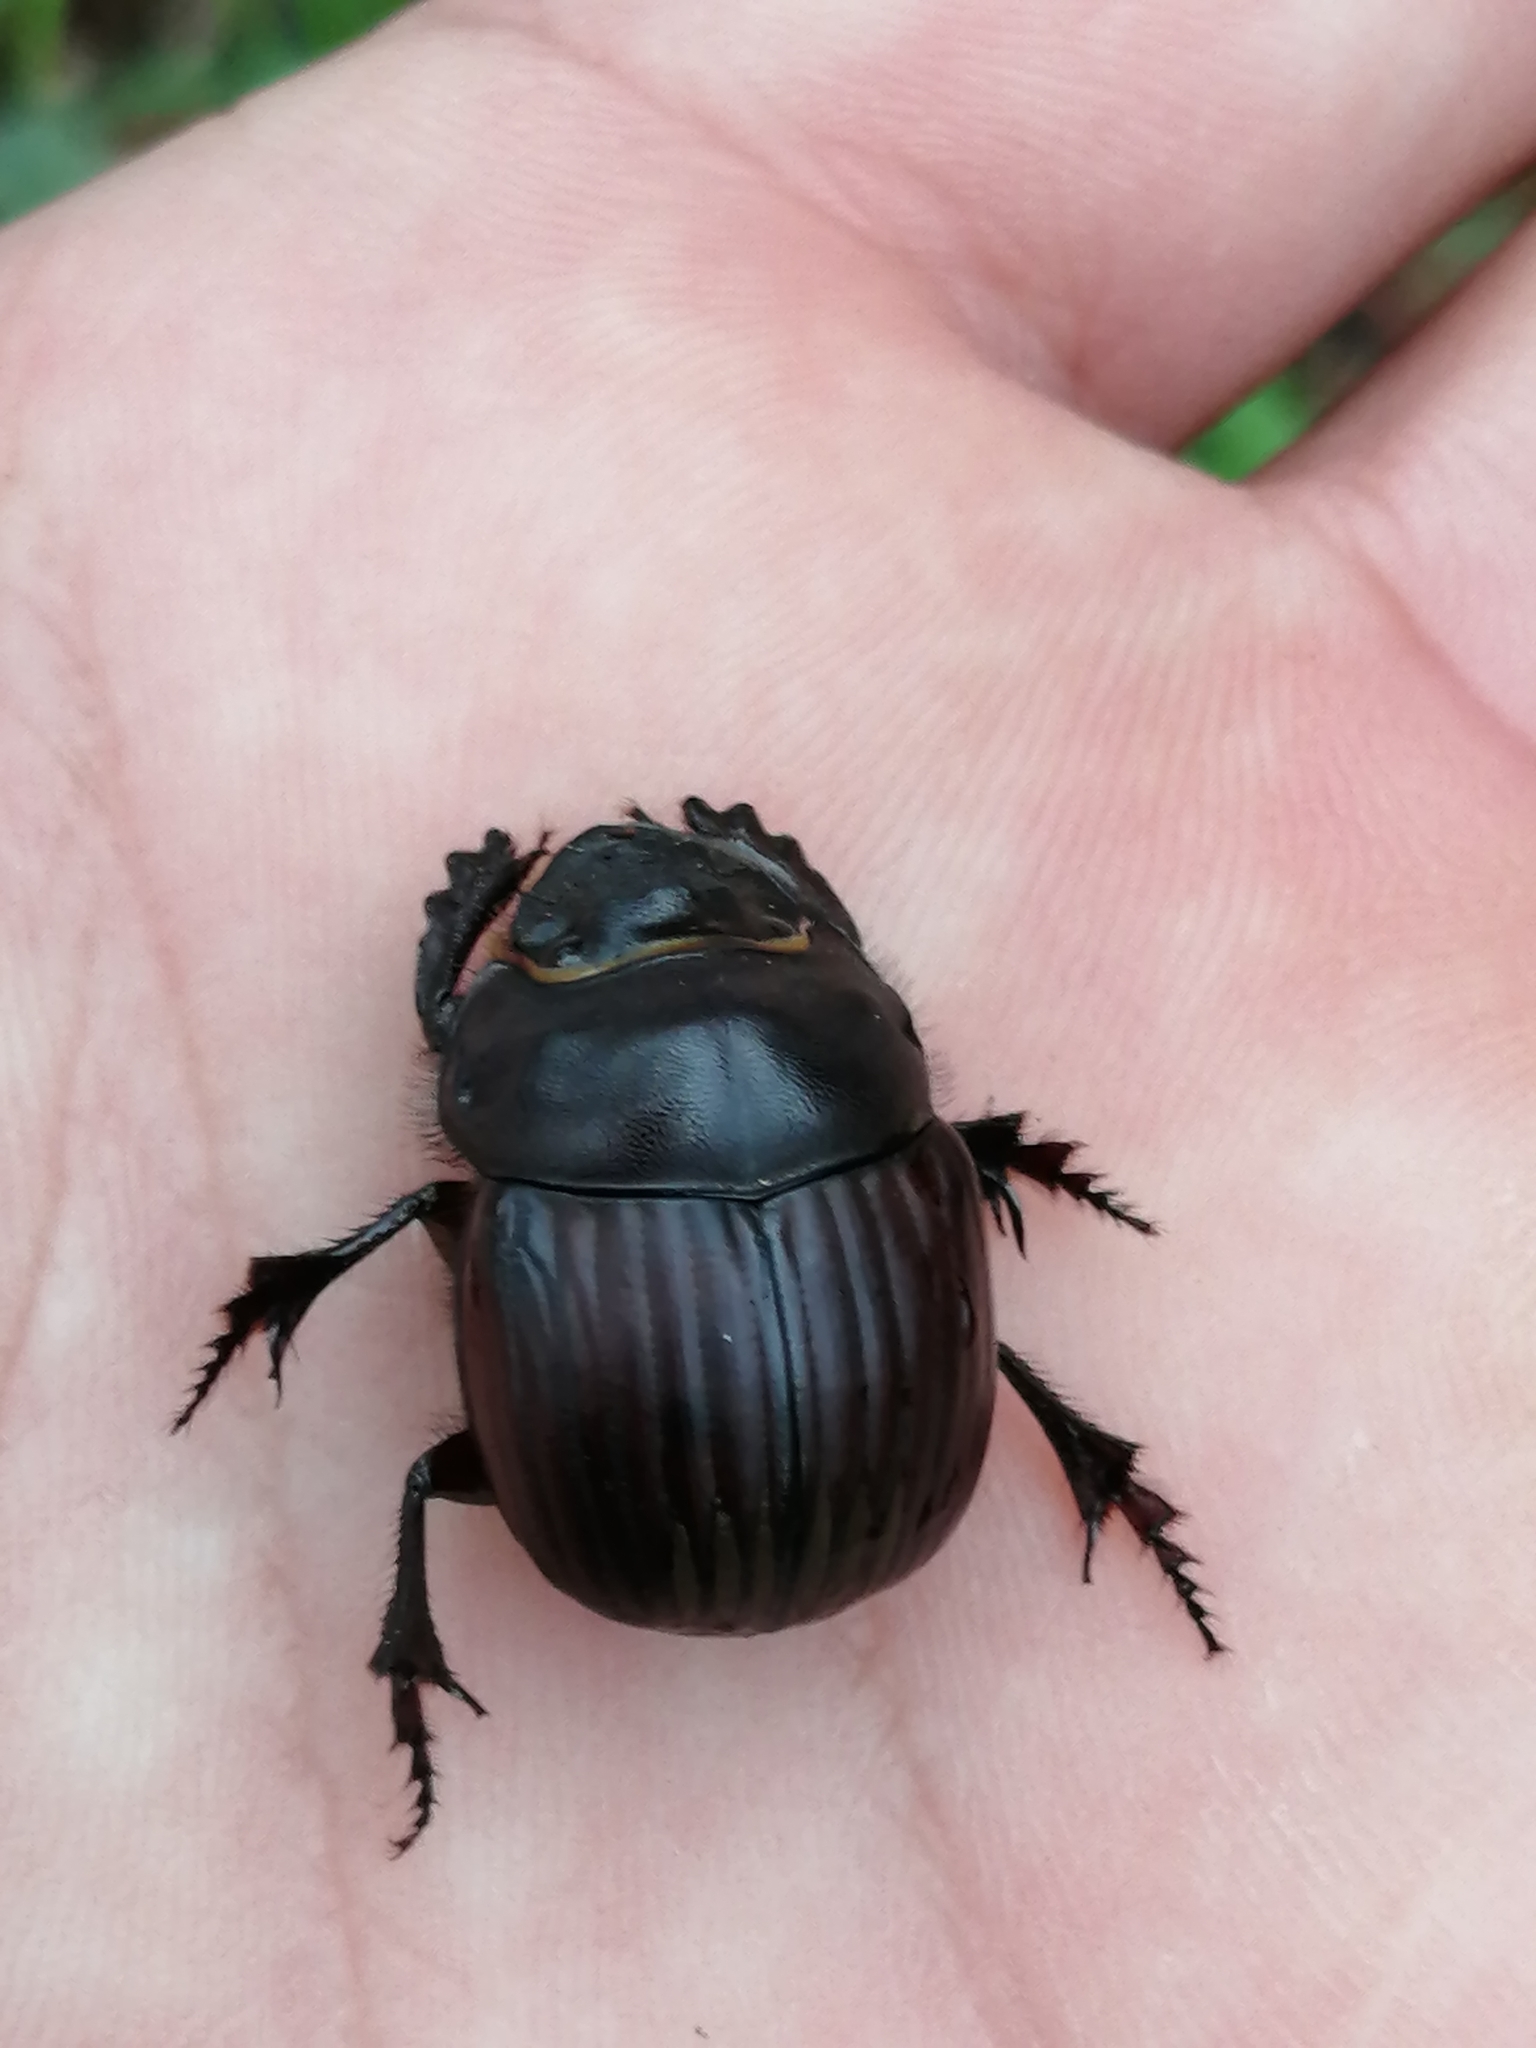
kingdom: Animalia
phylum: Arthropoda
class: Insecta
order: Coleoptera
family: Scarabaeidae
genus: Dichotomius
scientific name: Dichotomius maya
